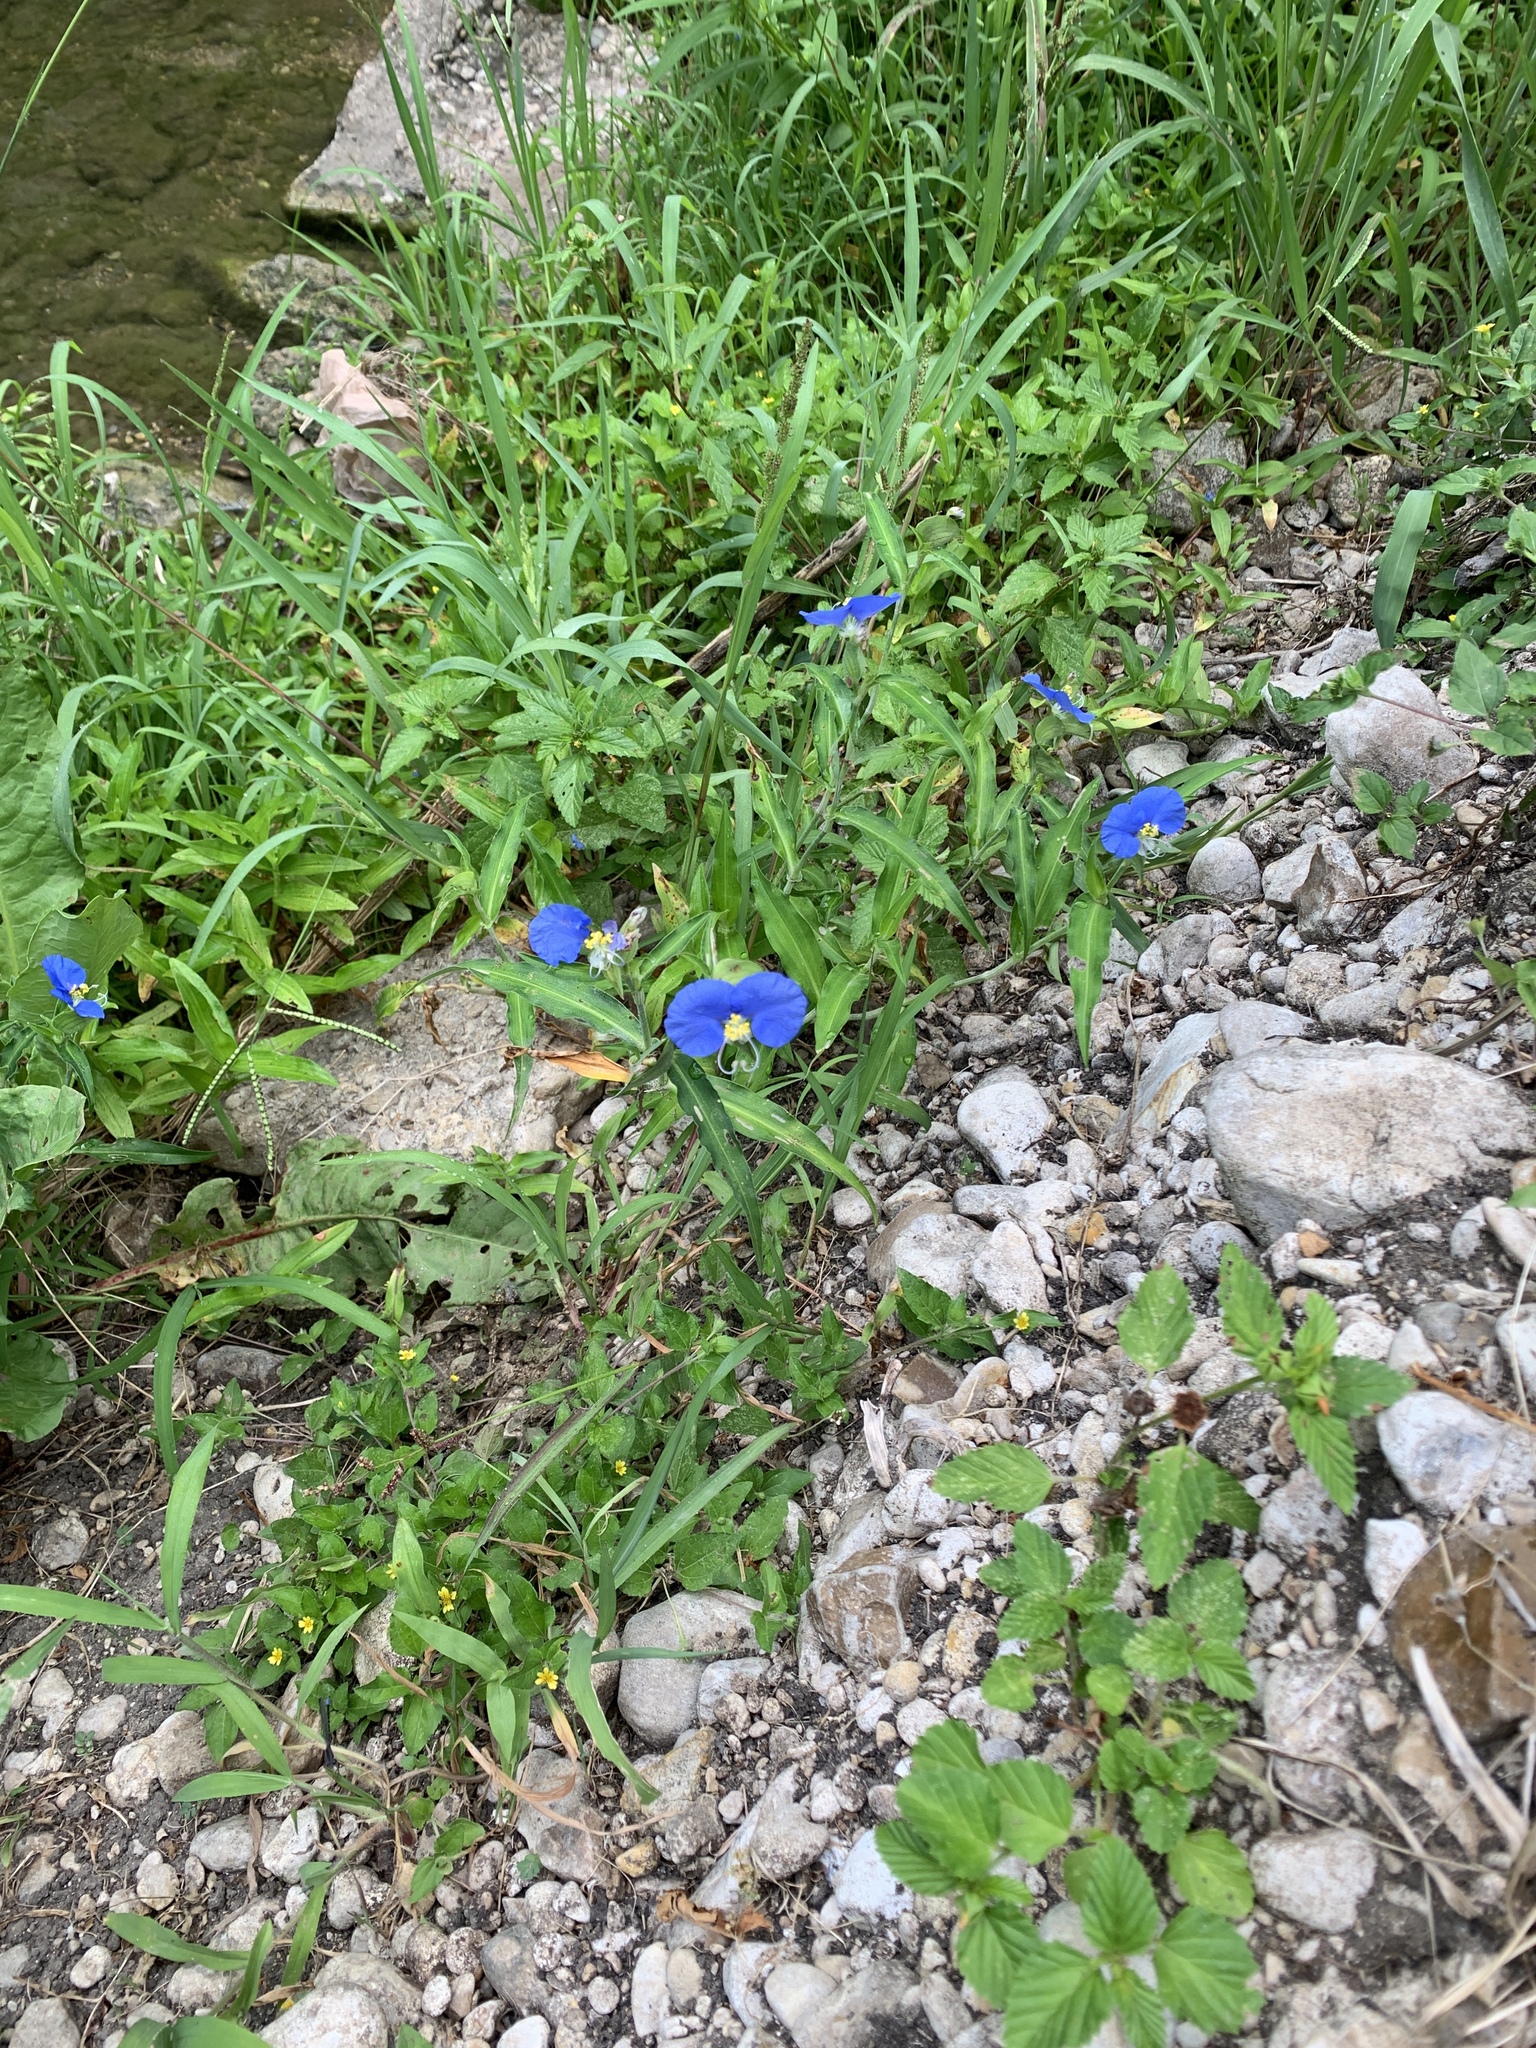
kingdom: Plantae
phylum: Tracheophyta
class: Liliopsida
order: Commelinales
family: Commelinaceae
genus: Commelina
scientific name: Commelina erecta
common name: Blousel blommetjie
